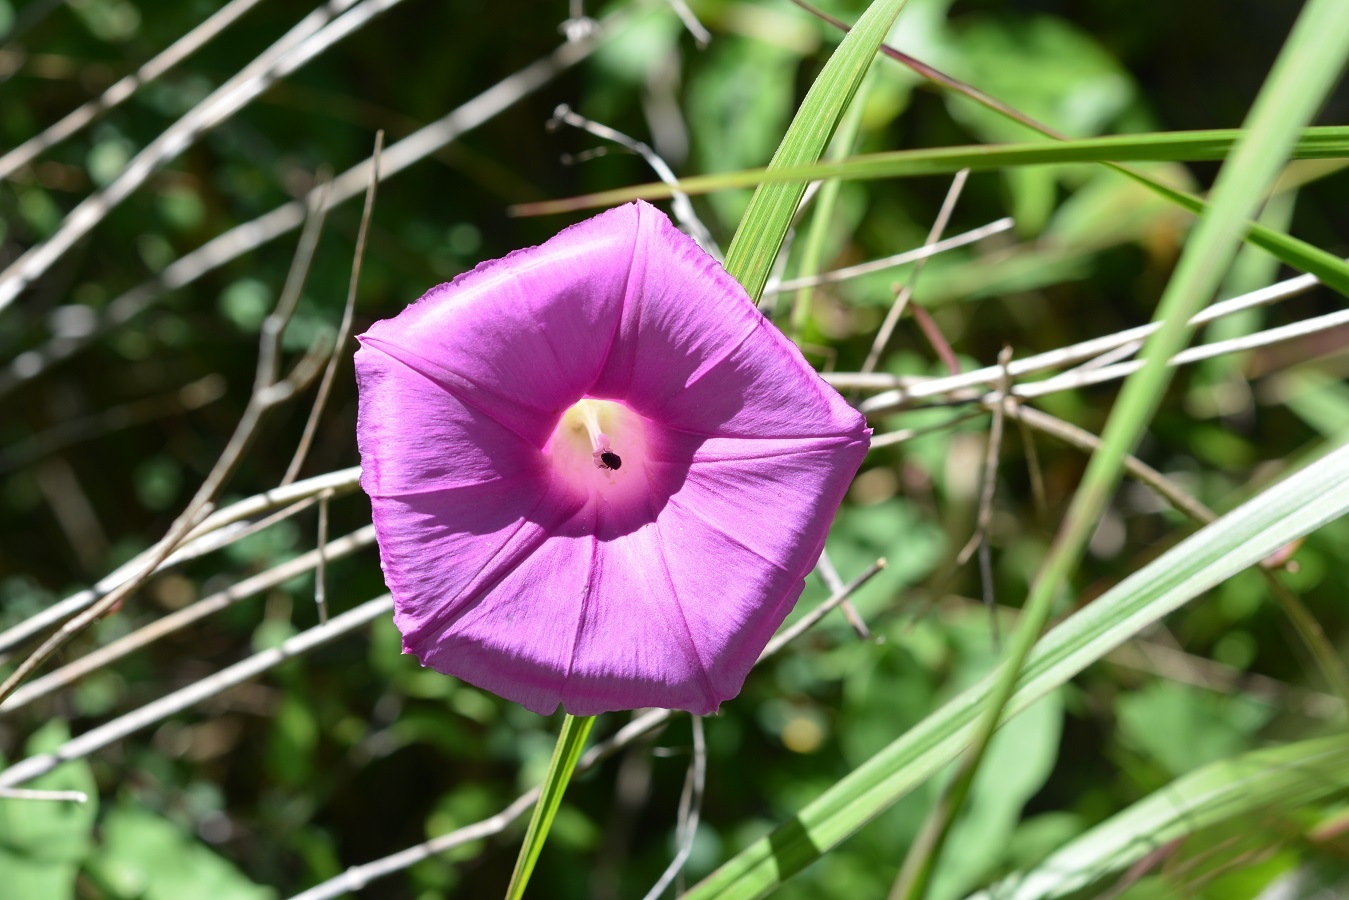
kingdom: Plantae
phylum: Tracheophyta
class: Magnoliopsida
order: Solanales
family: Convolvulaceae
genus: Ipomoea
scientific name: Ipomoea bernoulliana
